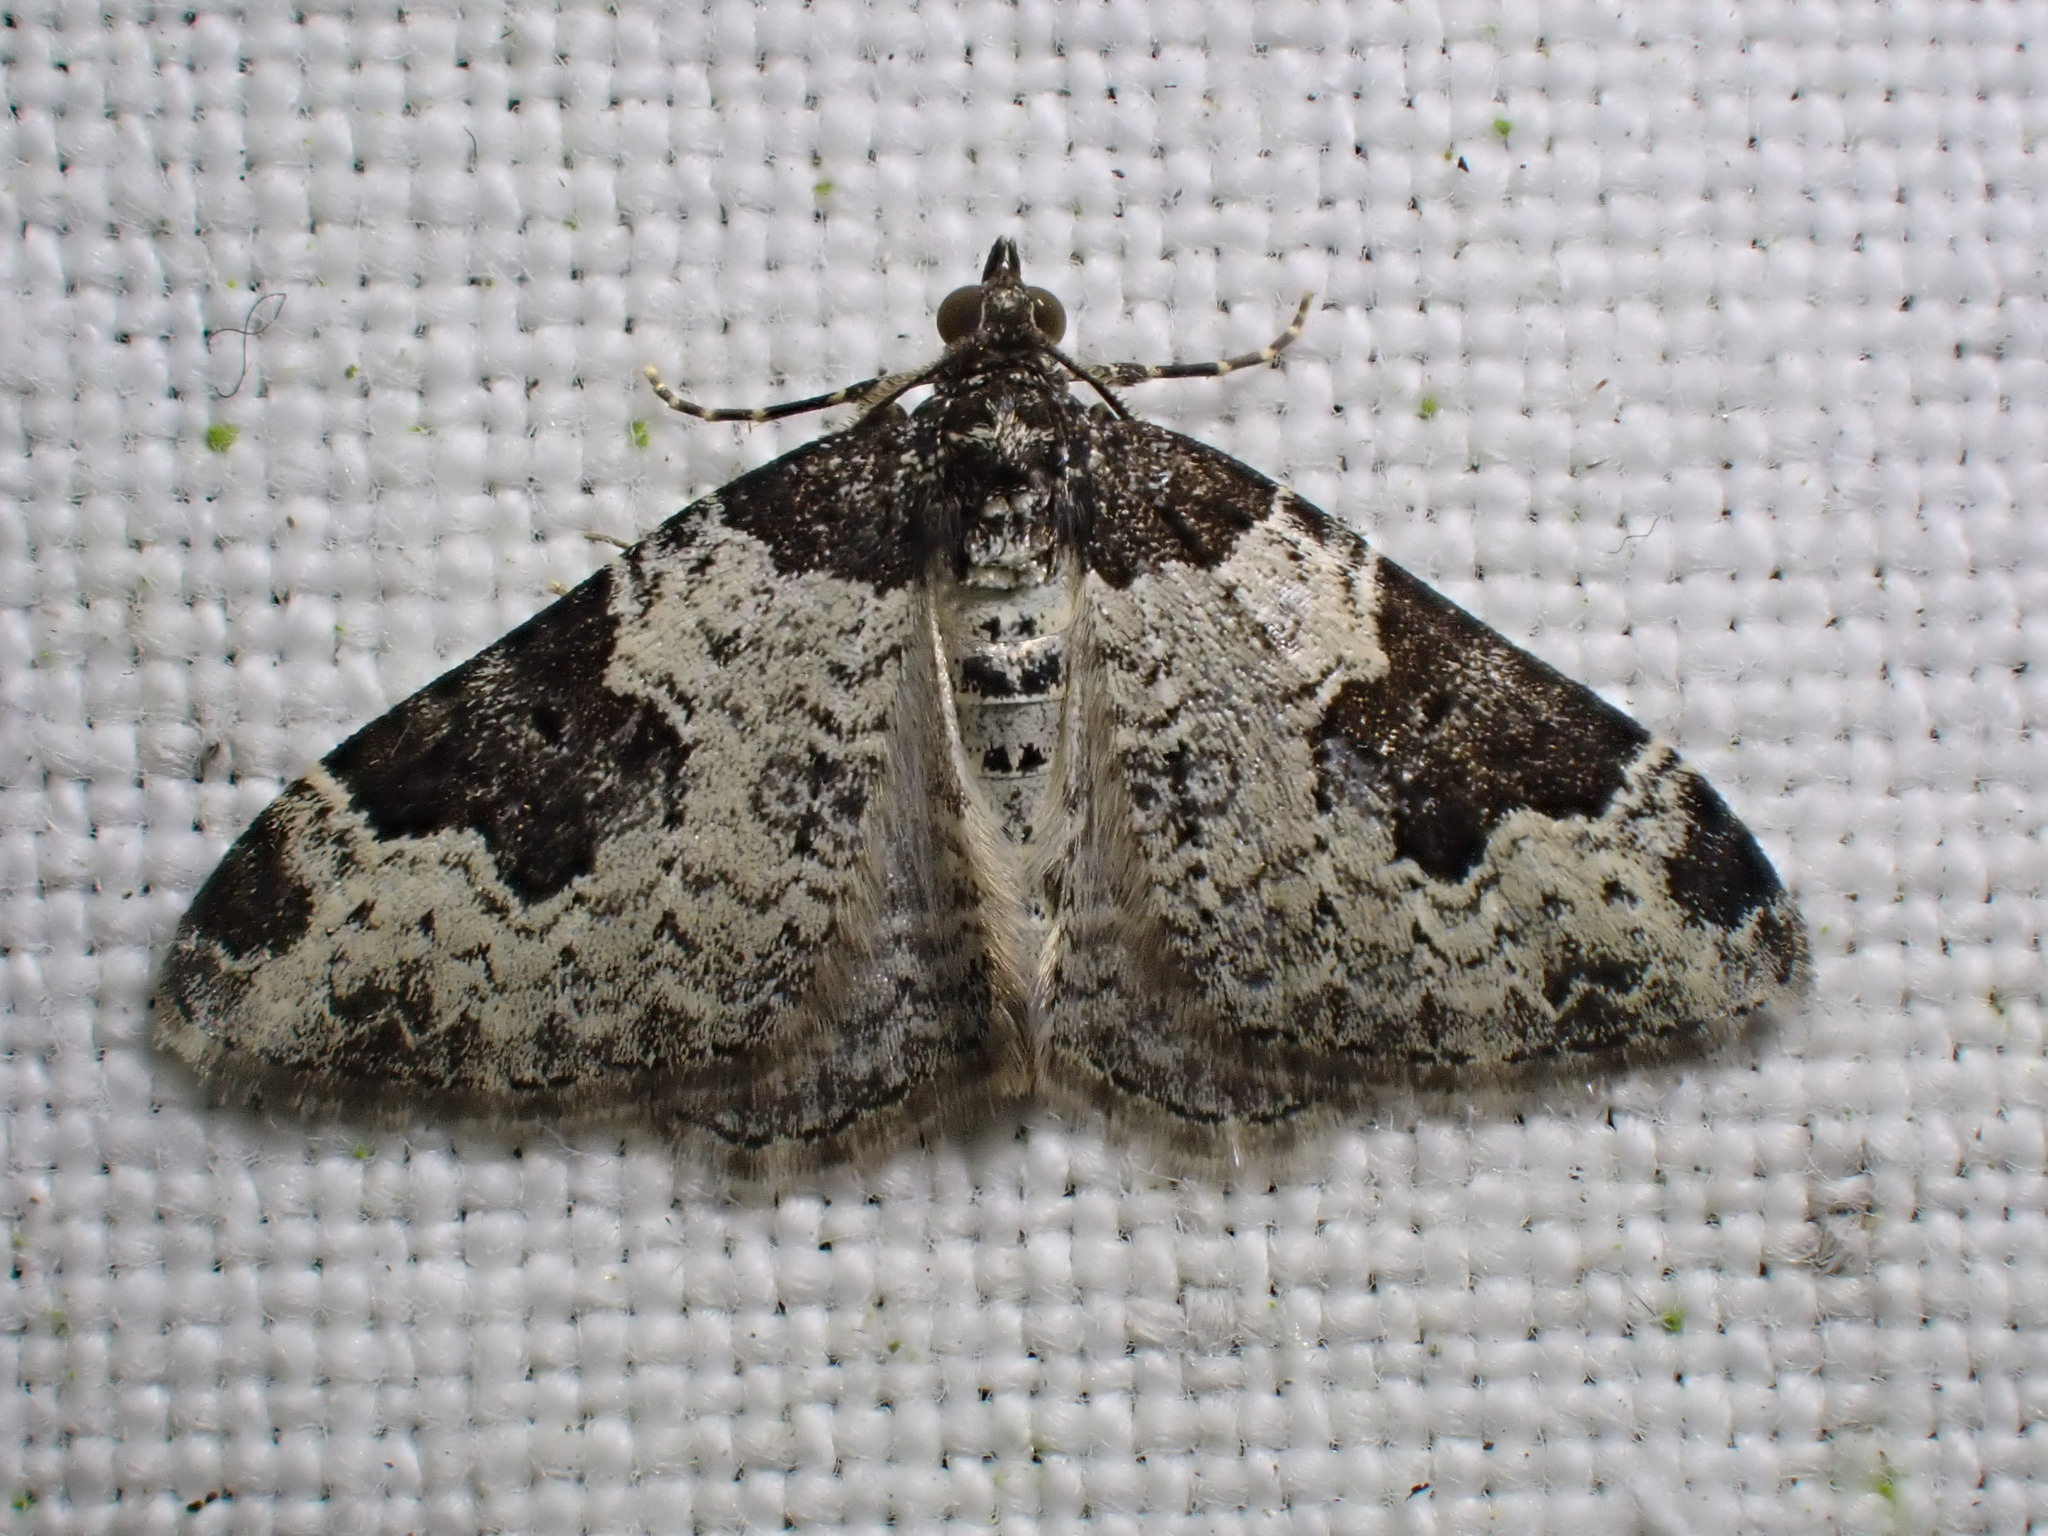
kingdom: Animalia
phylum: Arthropoda
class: Insecta
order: Lepidoptera
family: Geometridae
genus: Xanthorhoe
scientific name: Xanthorhoe fluctuata
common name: Garden carpet
